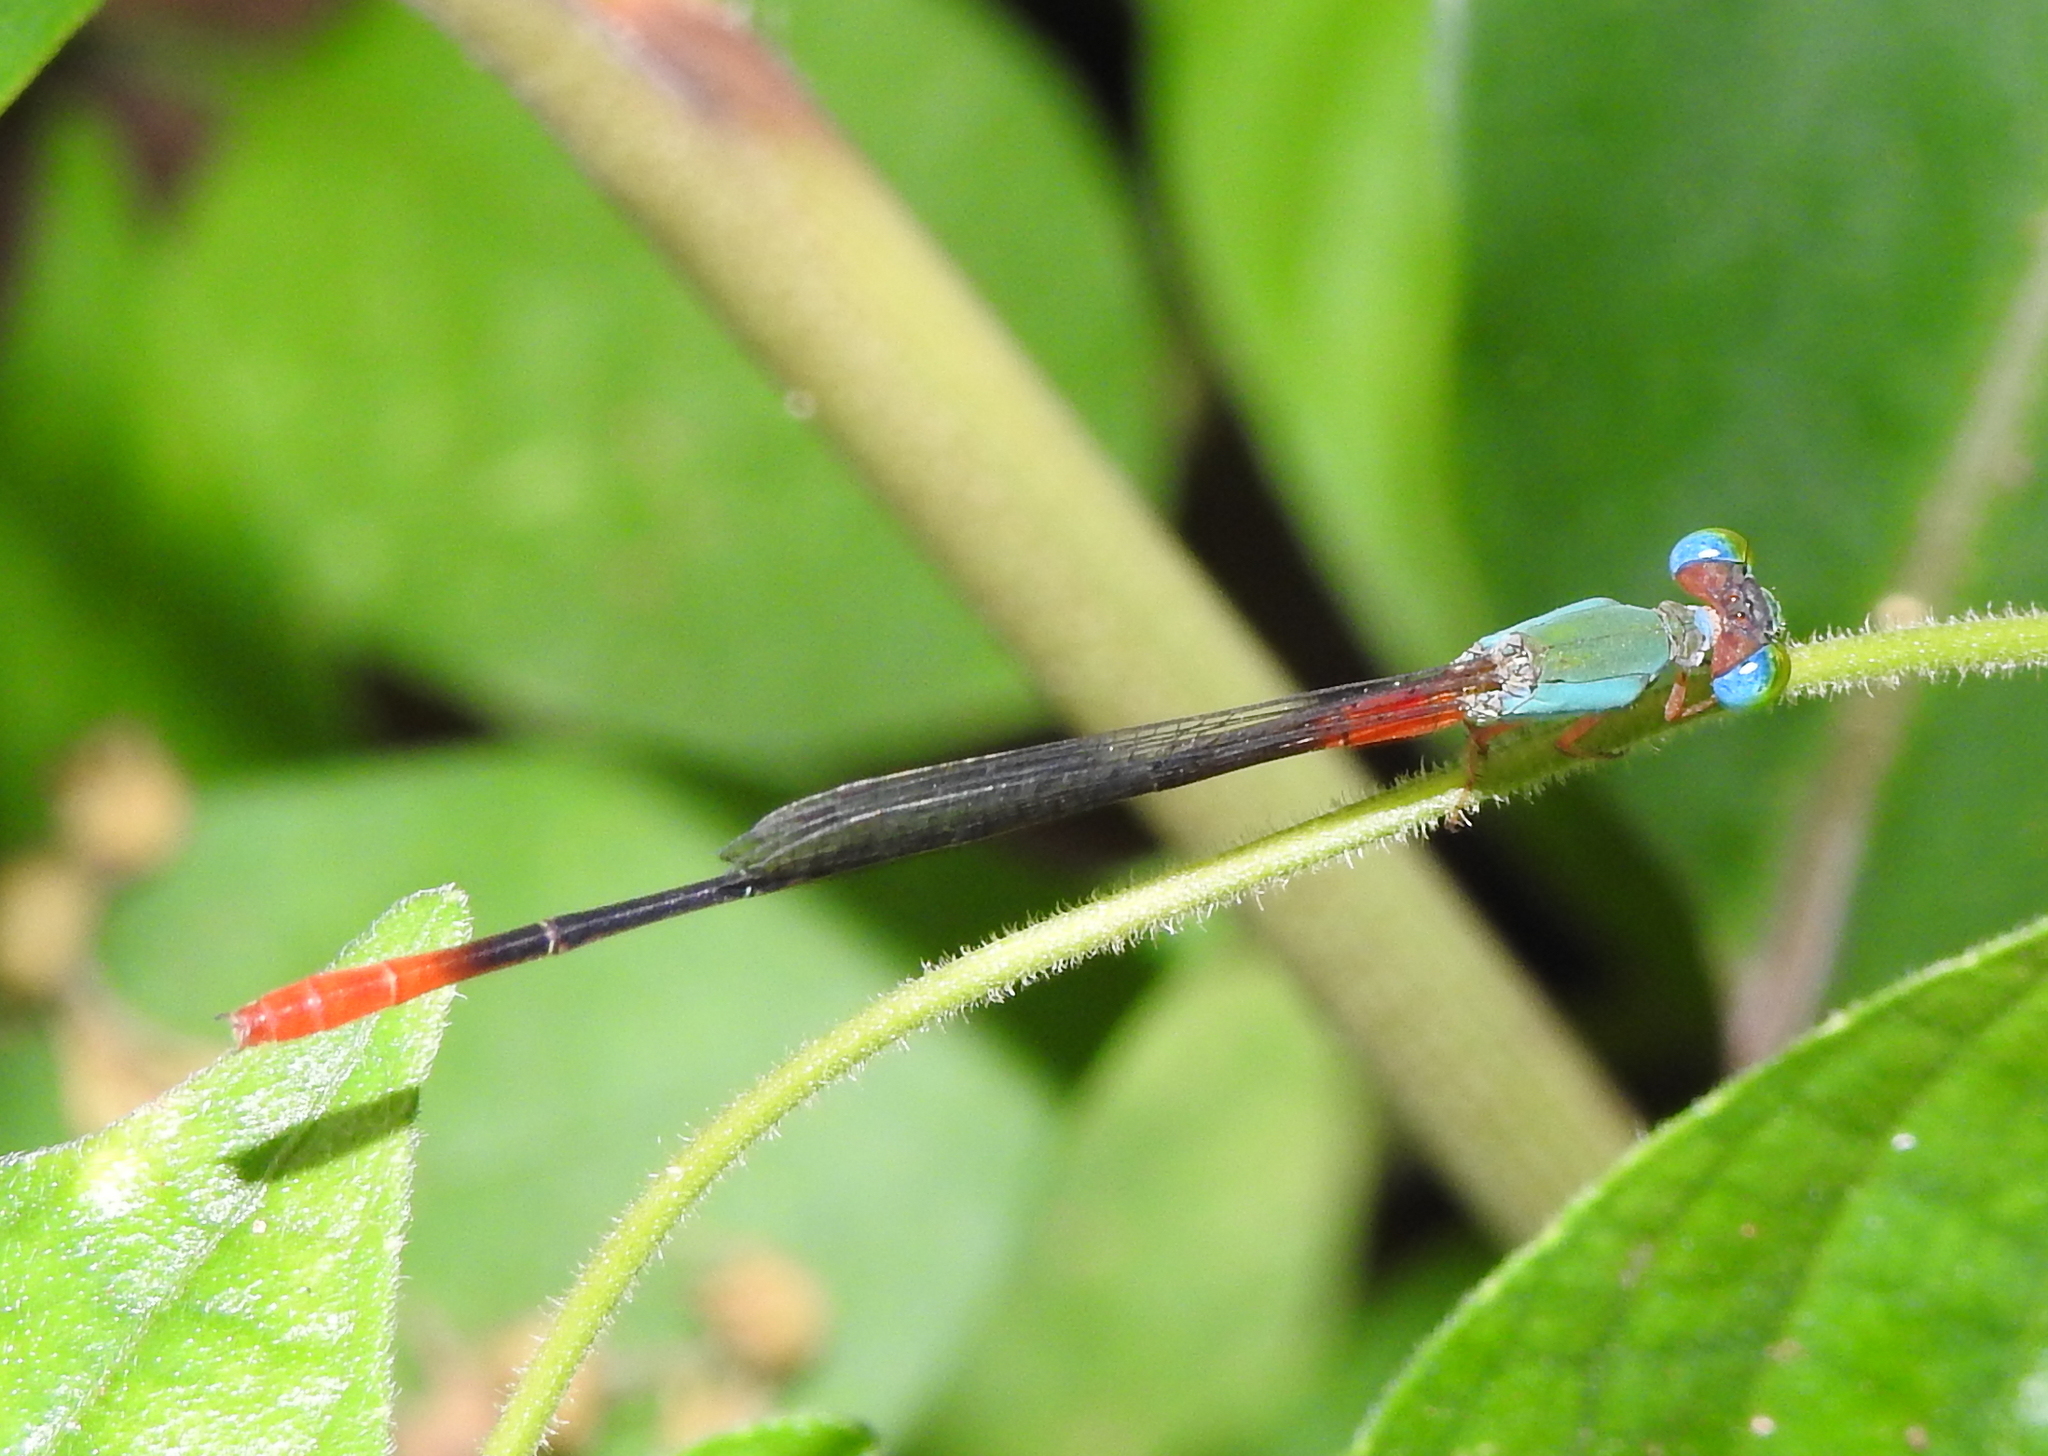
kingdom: Animalia
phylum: Arthropoda
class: Insecta
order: Odonata
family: Coenagrionidae
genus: Ceriagrion
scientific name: Ceriagrion cerinorubellum
